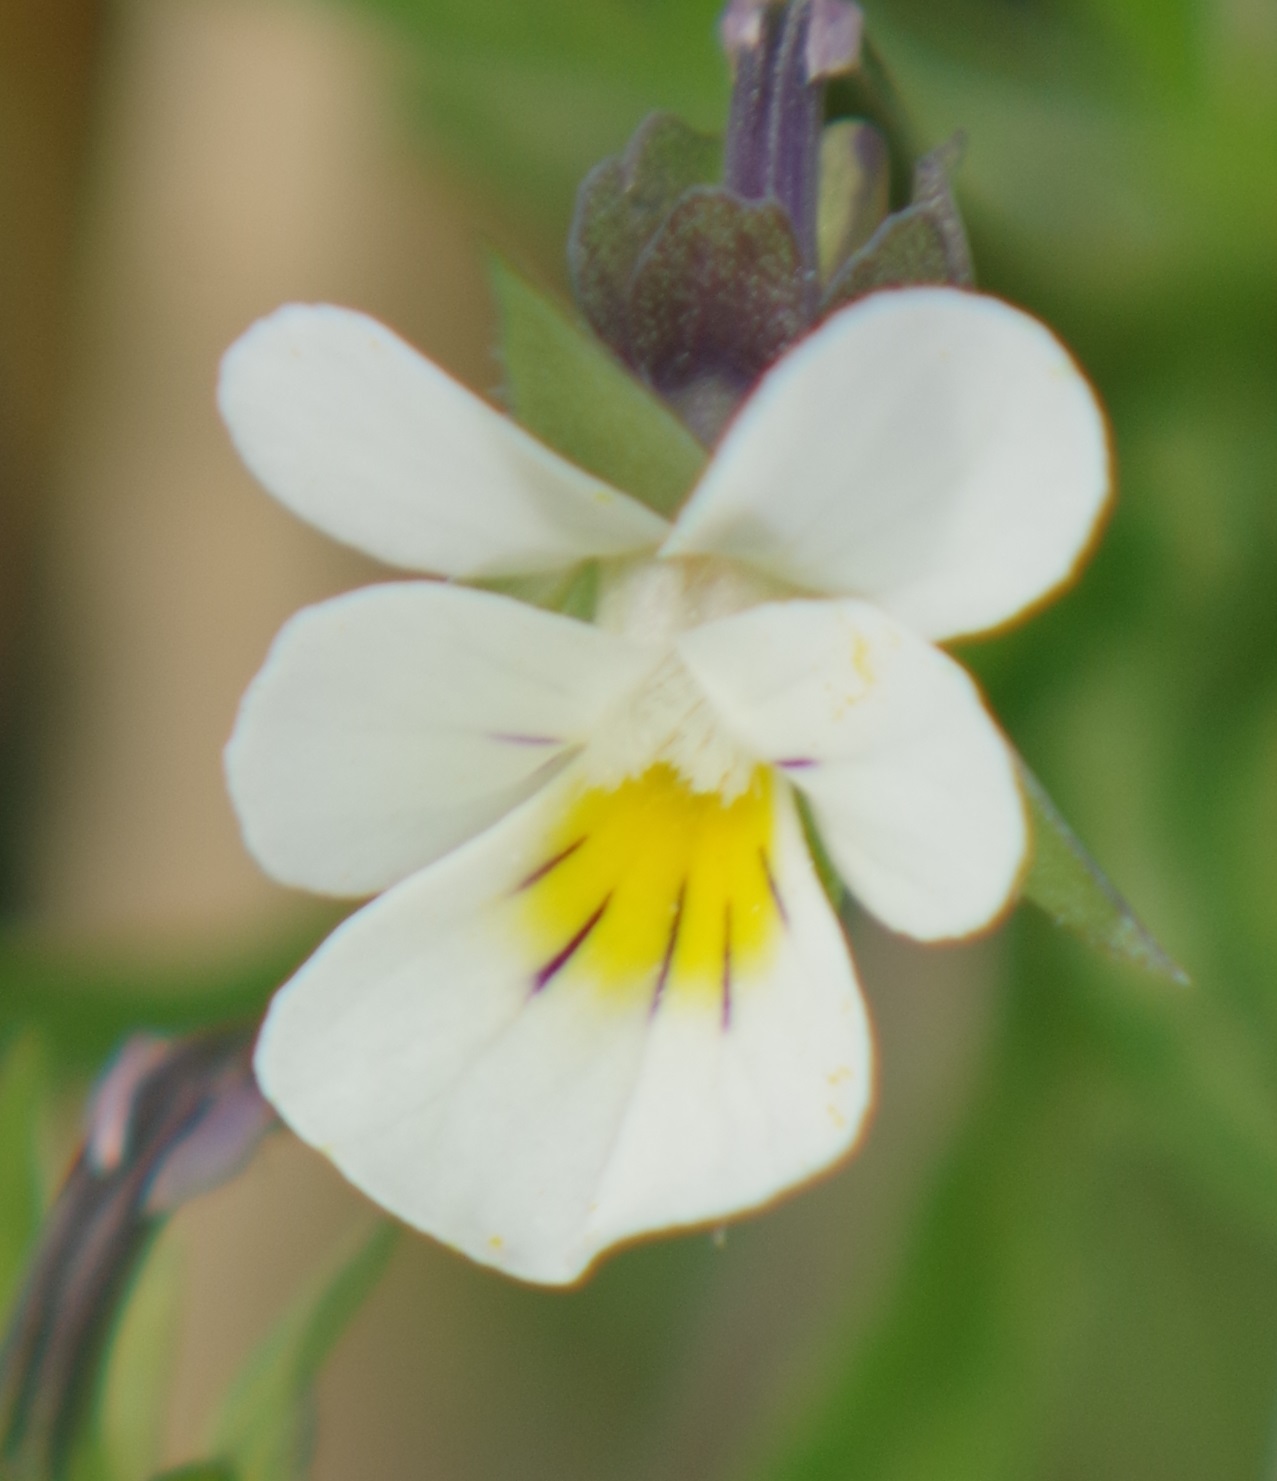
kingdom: Plantae
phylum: Tracheophyta
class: Magnoliopsida
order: Malpighiales
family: Violaceae
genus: Viola
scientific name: Viola arvensis
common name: Field pansy
